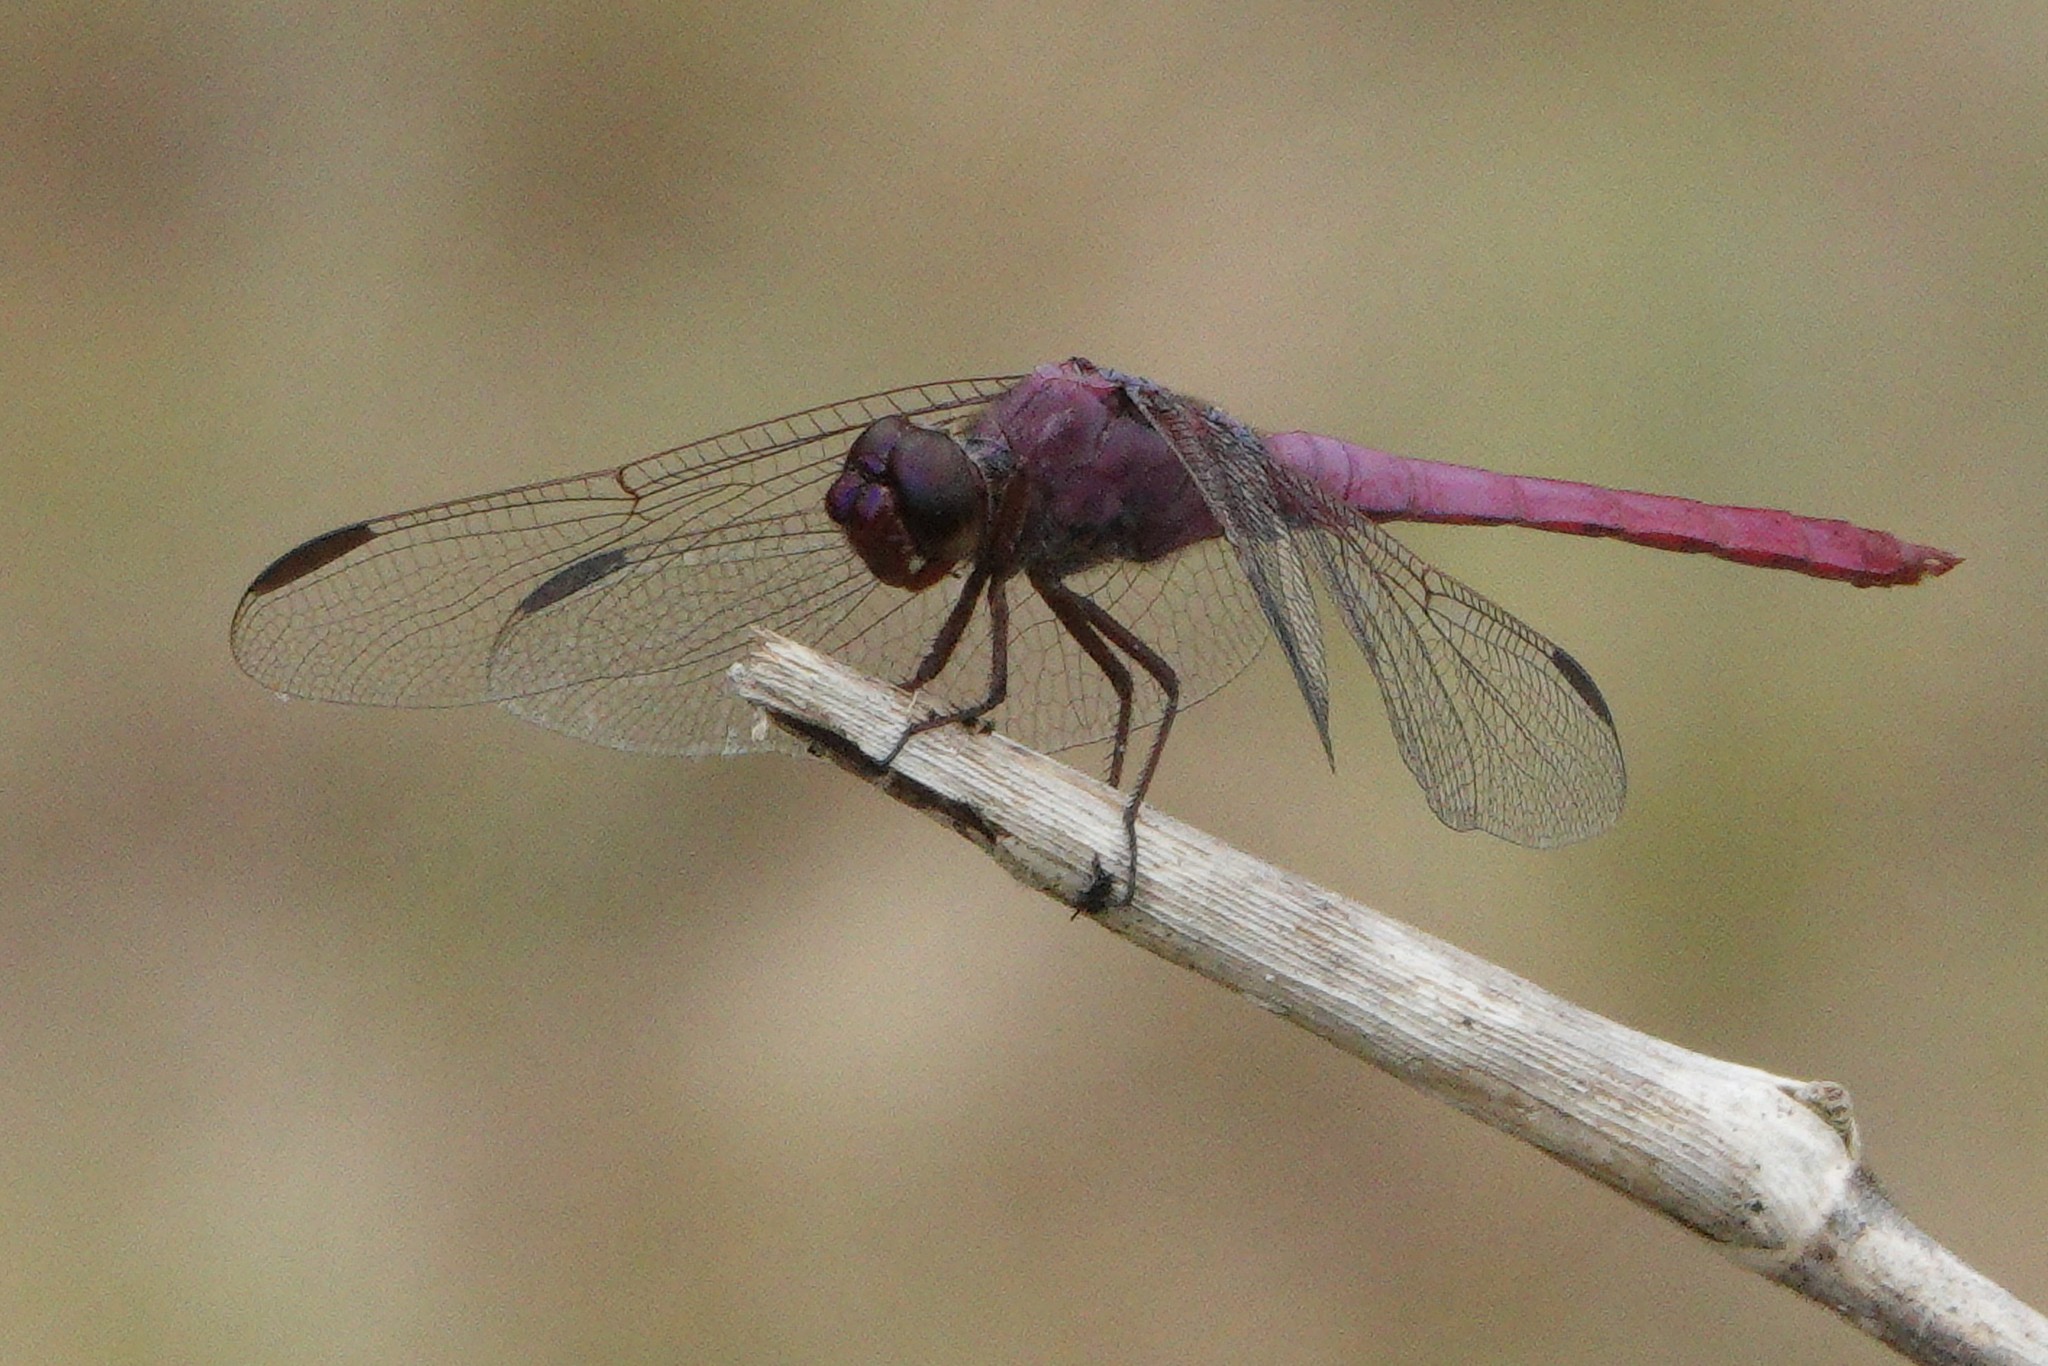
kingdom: Animalia
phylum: Arthropoda
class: Insecta
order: Odonata
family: Libellulidae
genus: Orthemis
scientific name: Orthemis ferruginea
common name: Roseate skimmer
